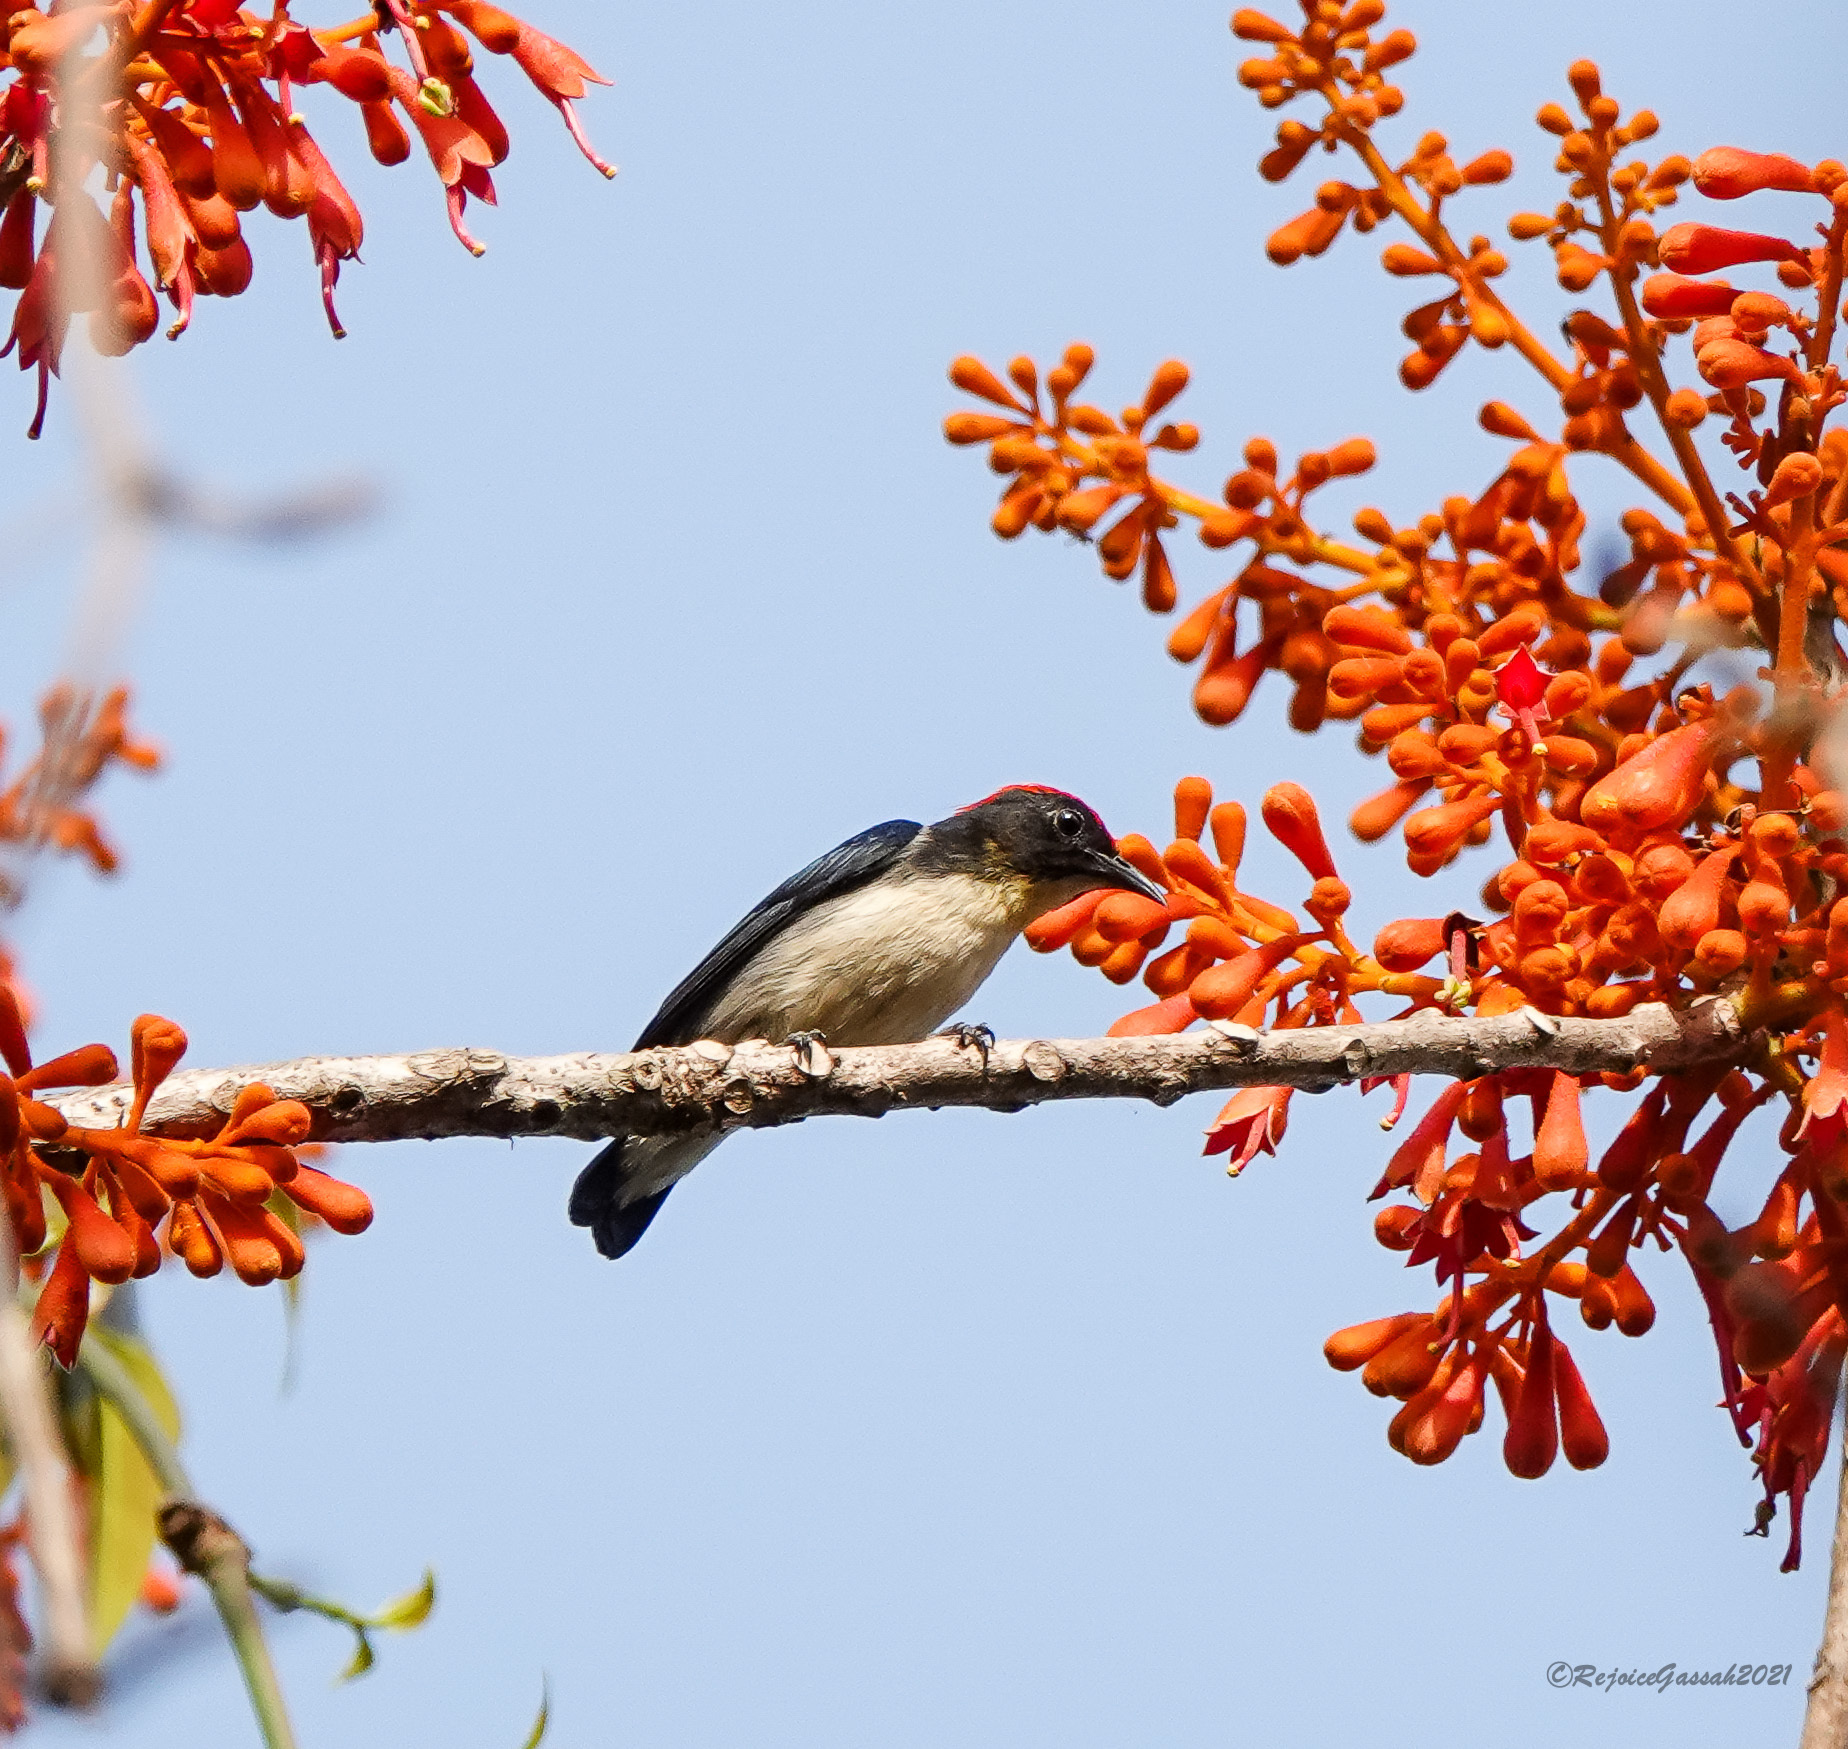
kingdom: Animalia
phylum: Chordata
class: Aves
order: Passeriformes
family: Dicaeidae
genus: Dicaeum
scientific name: Dicaeum cruentatum
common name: Scarlet-backed flowerpecker
